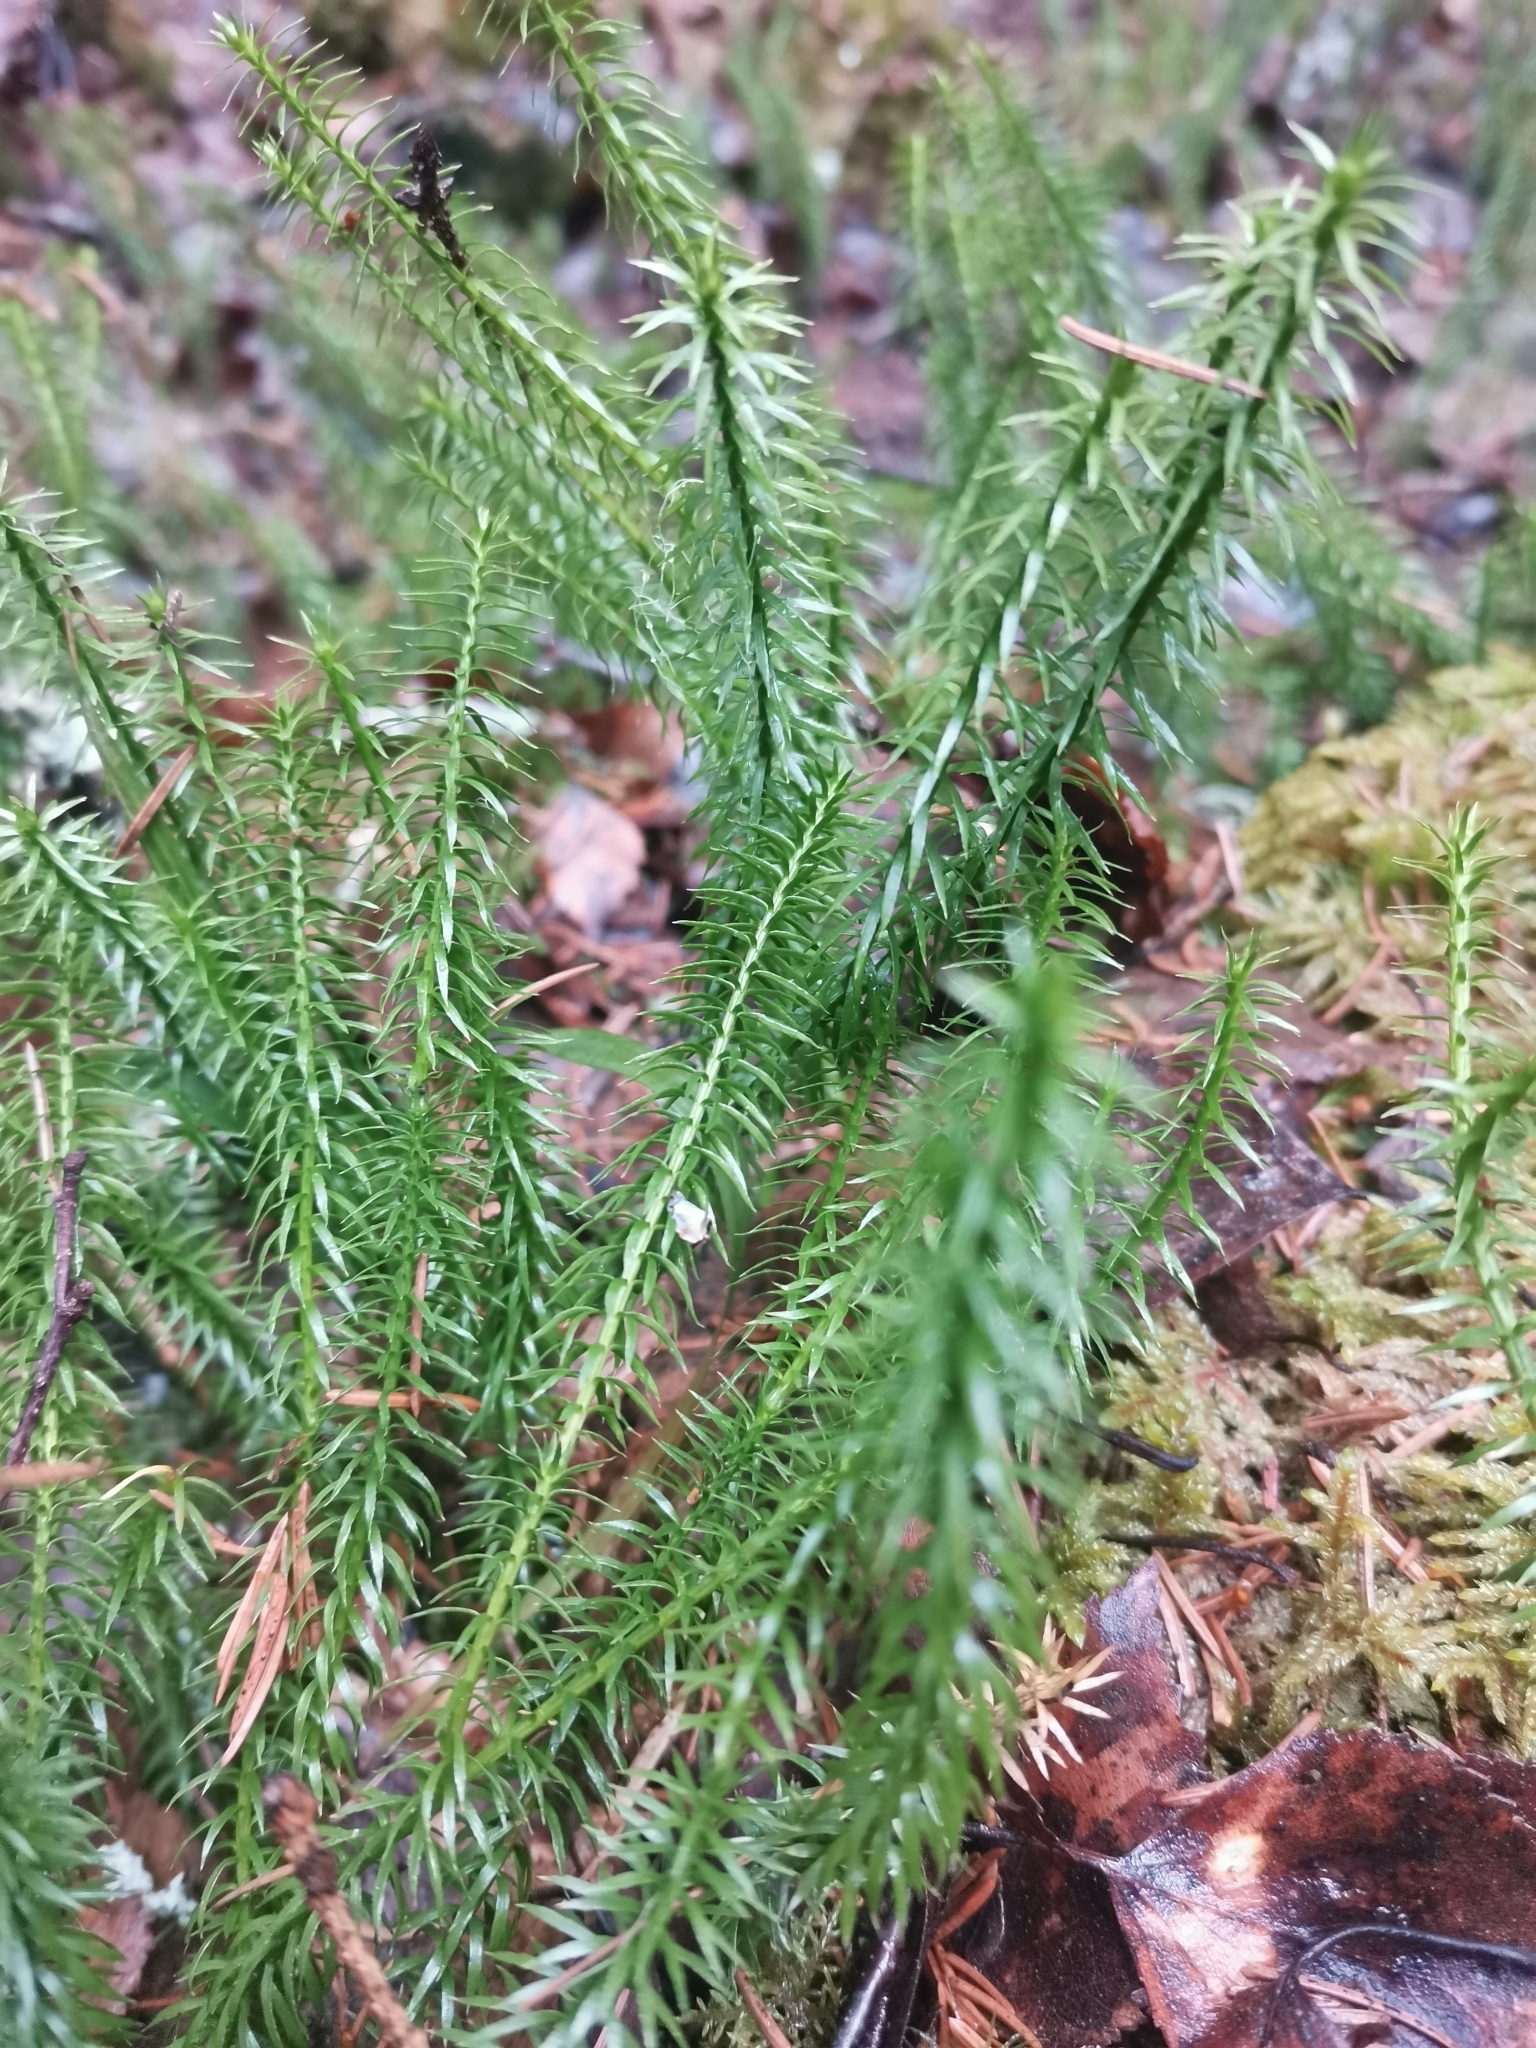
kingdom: Plantae
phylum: Tracheophyta
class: Lycopodiopsida
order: Lycopodiales
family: Lycopodiaceae
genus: Spinulum
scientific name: Spinulum annotinum
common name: Interrupted club-moss
